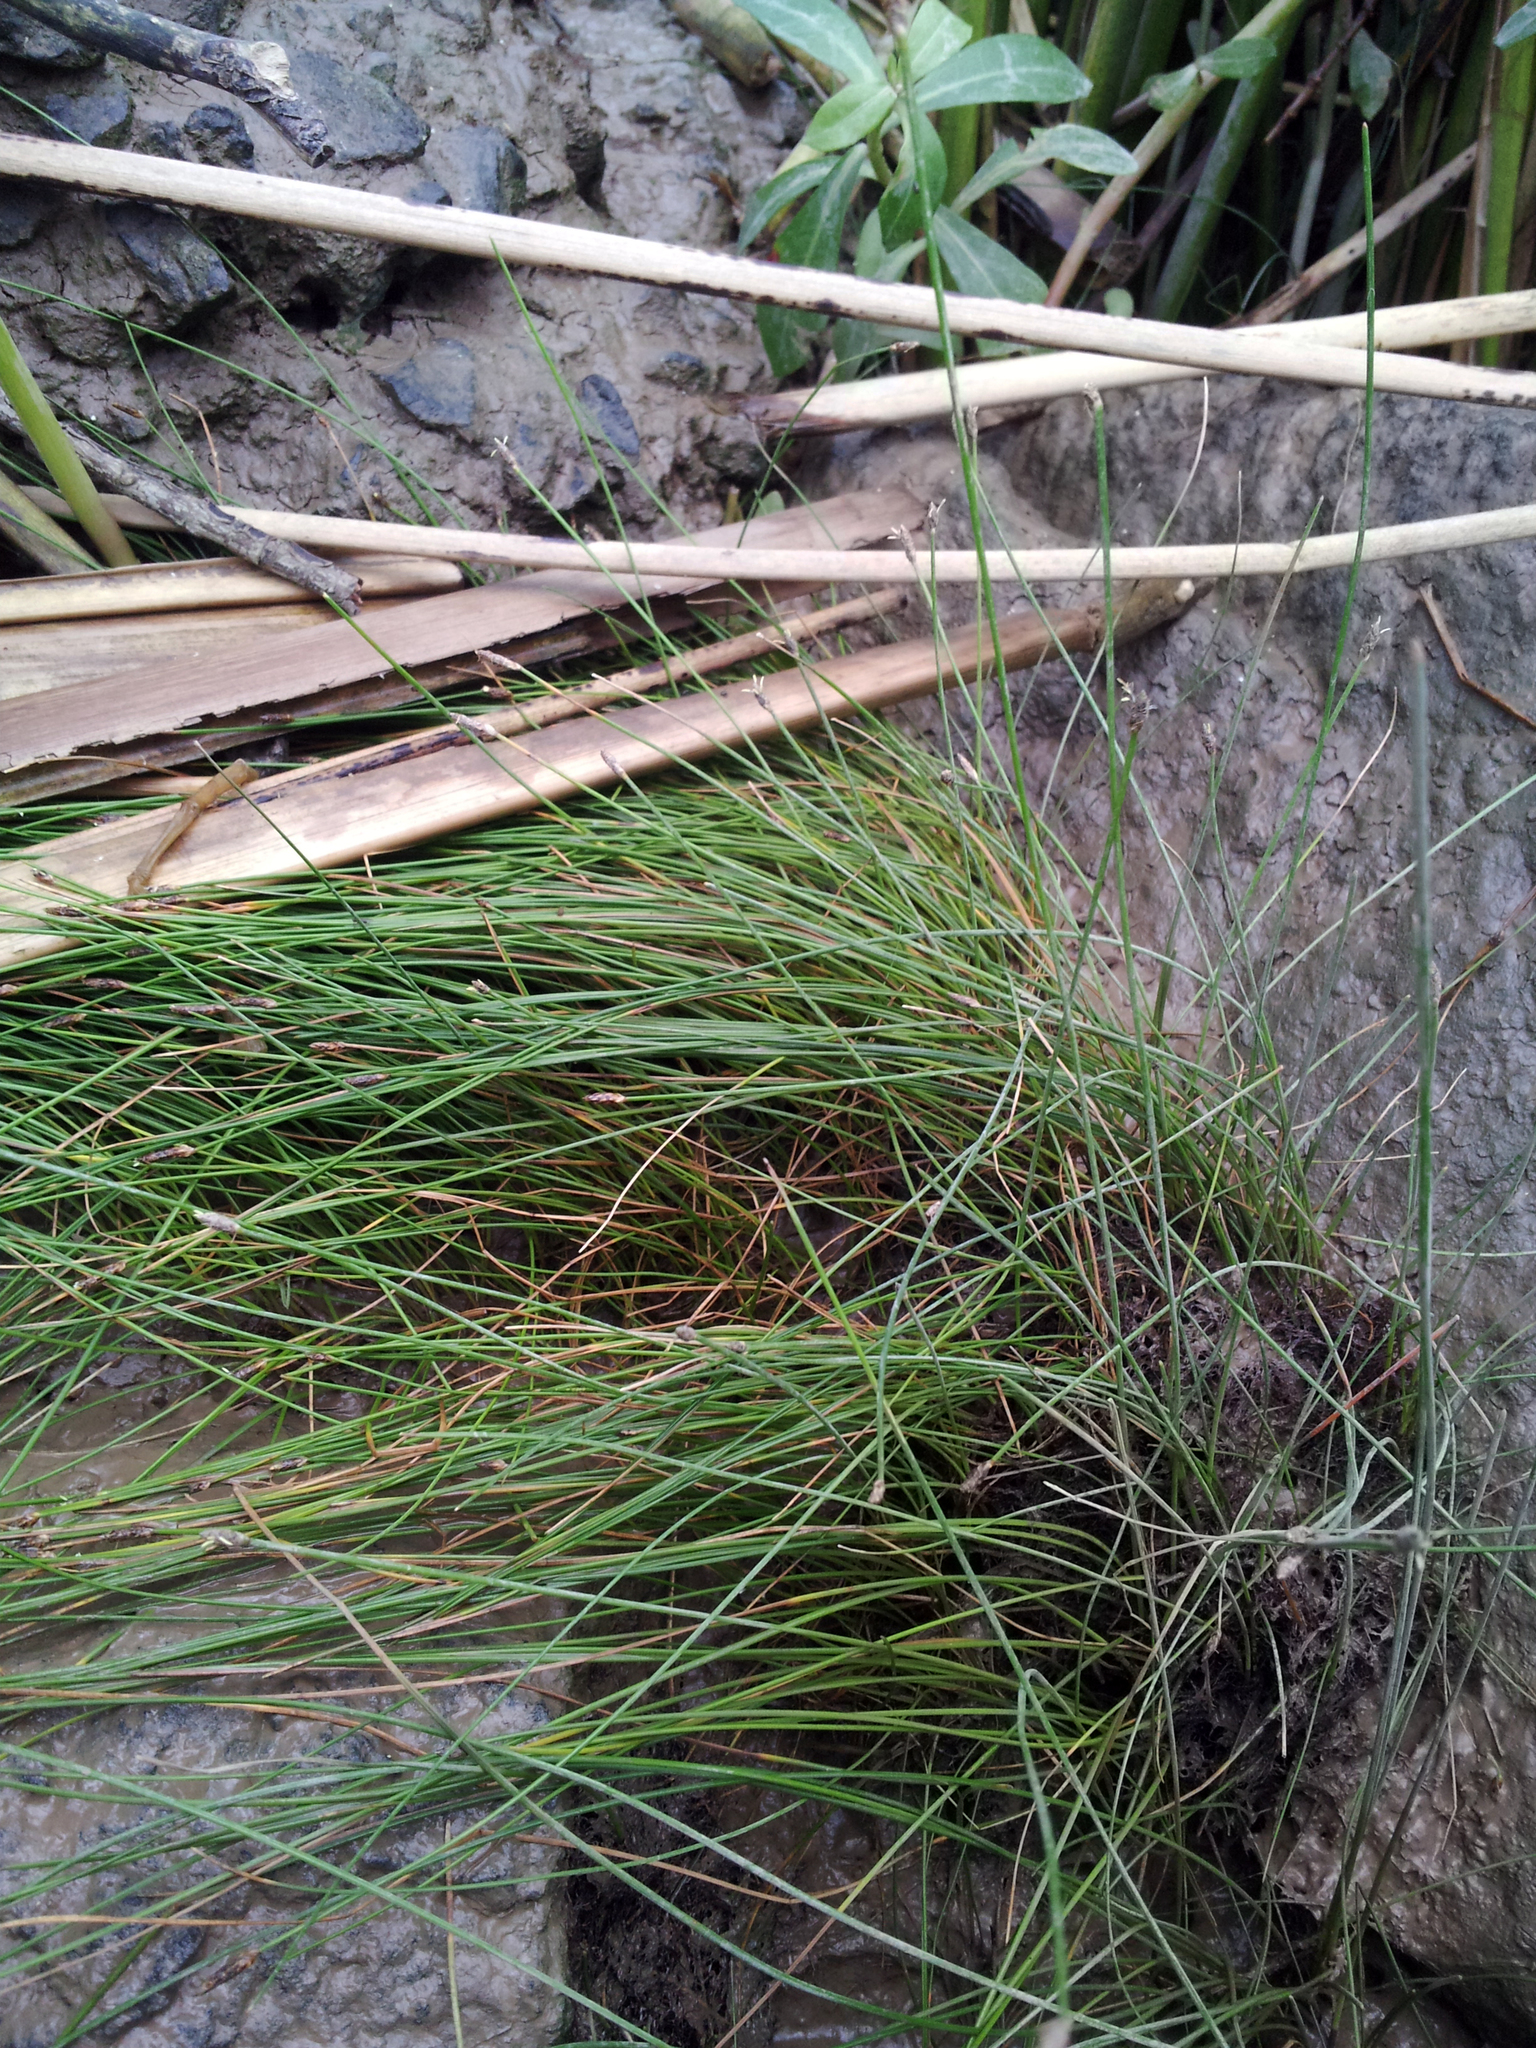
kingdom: Plantae
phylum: Tracheophyta
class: Liliopsida
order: Poales
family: Cyperaceae
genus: Eleocharis
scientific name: Eleocharis gracilis
